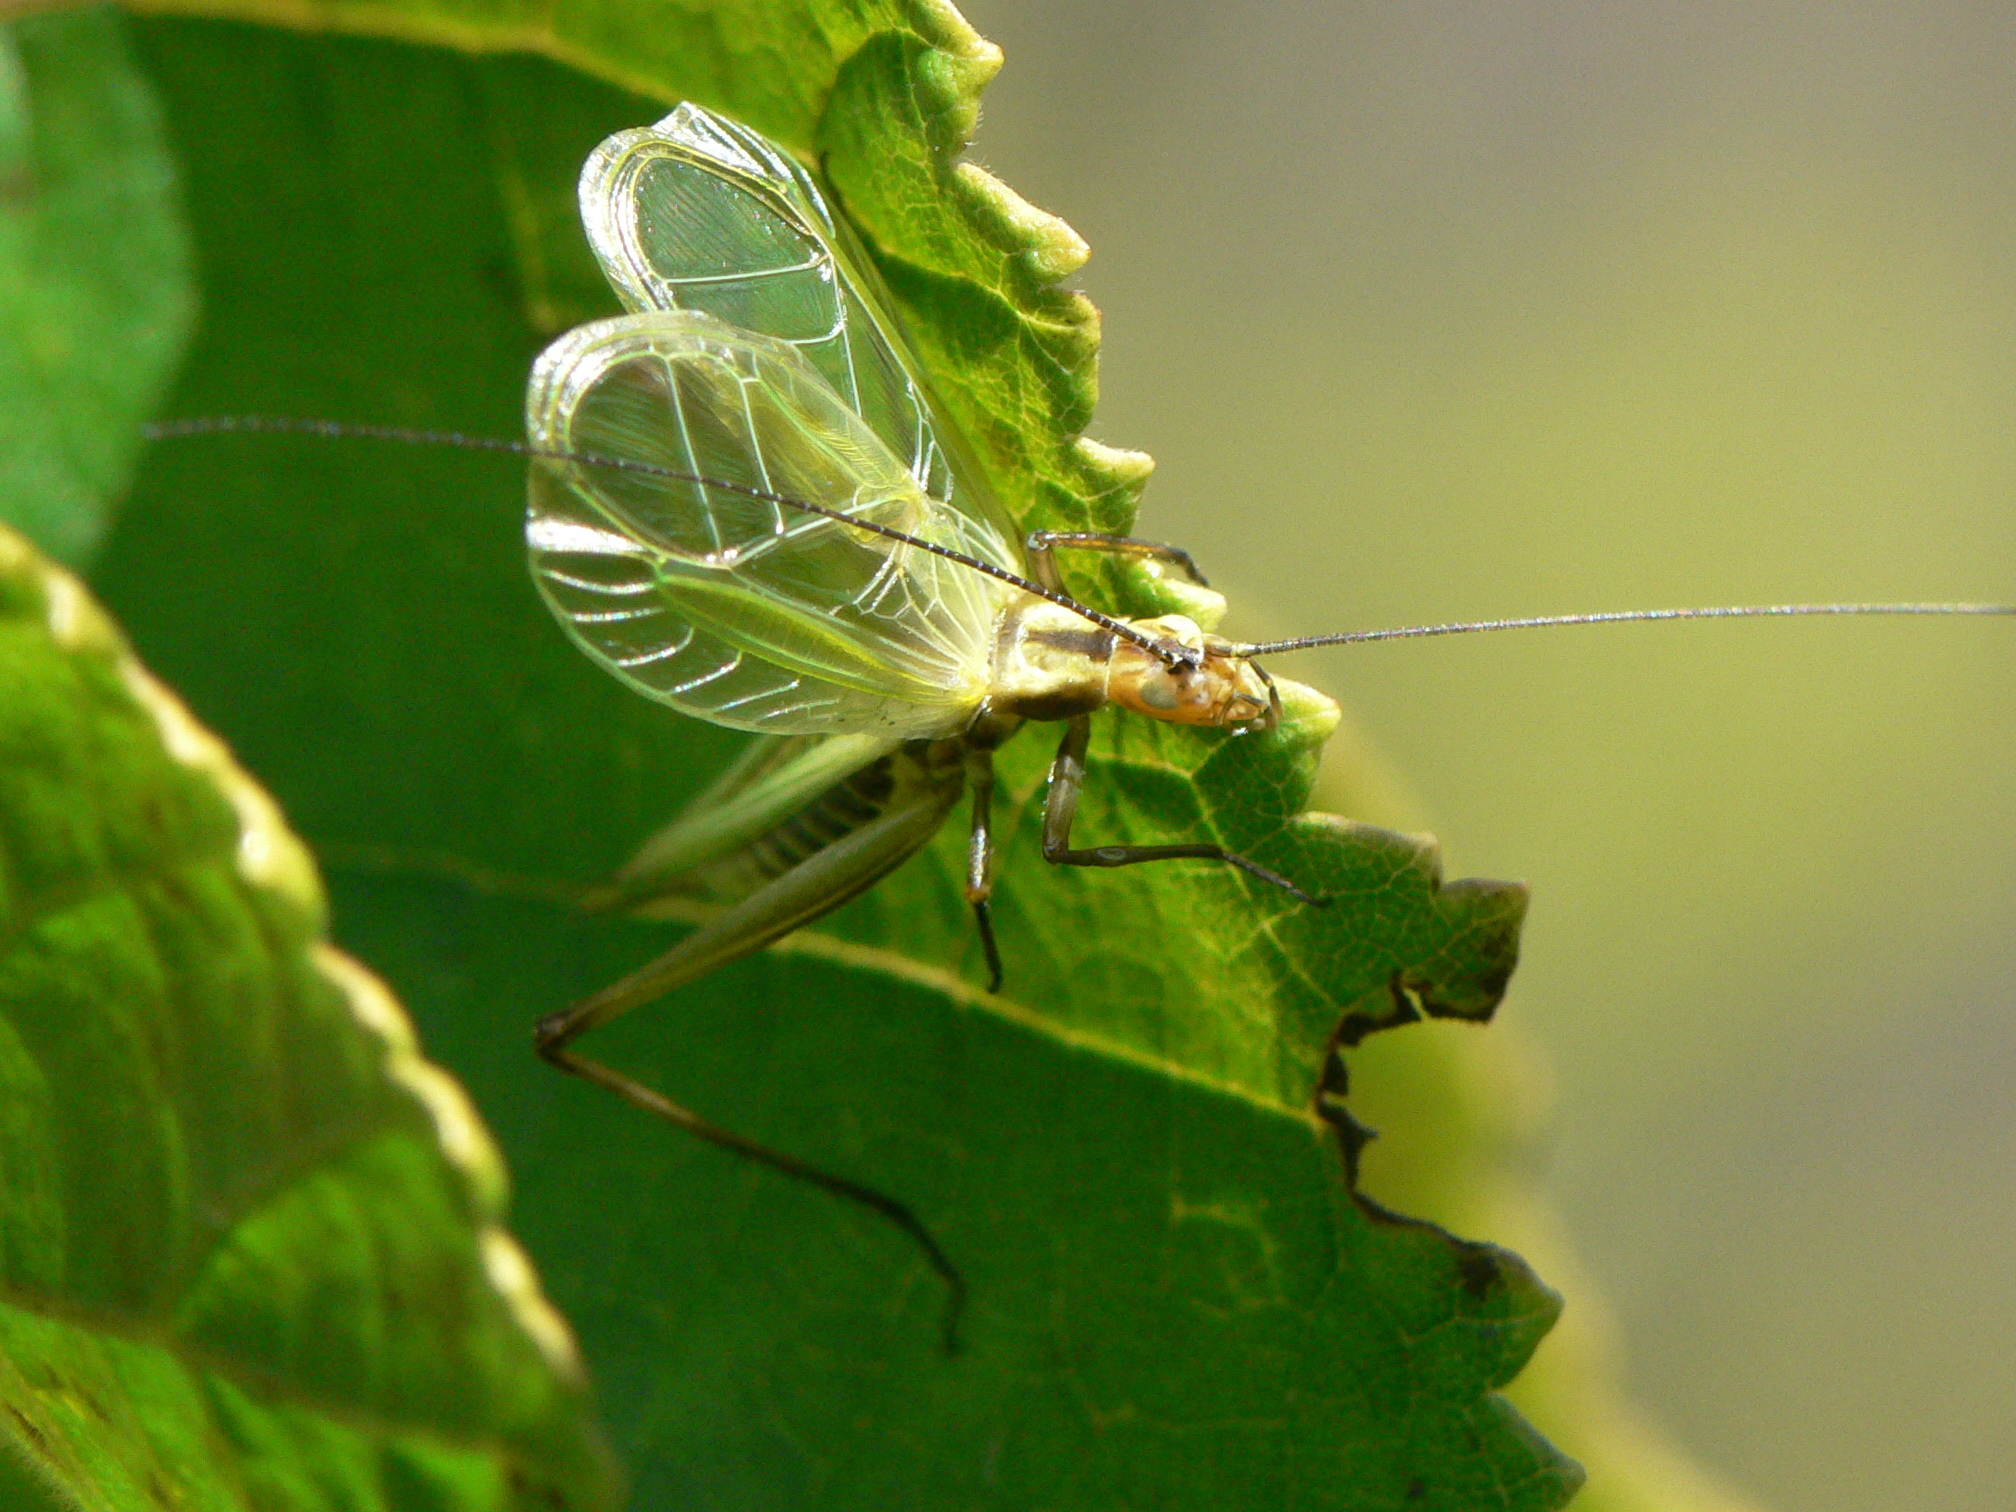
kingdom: Animalia
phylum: Arthropoda
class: Insecta
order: Orthoptera
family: Gryllidae
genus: Oecanthus
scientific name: Oecanthus nigricornis
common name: Black-horned tree cricket
